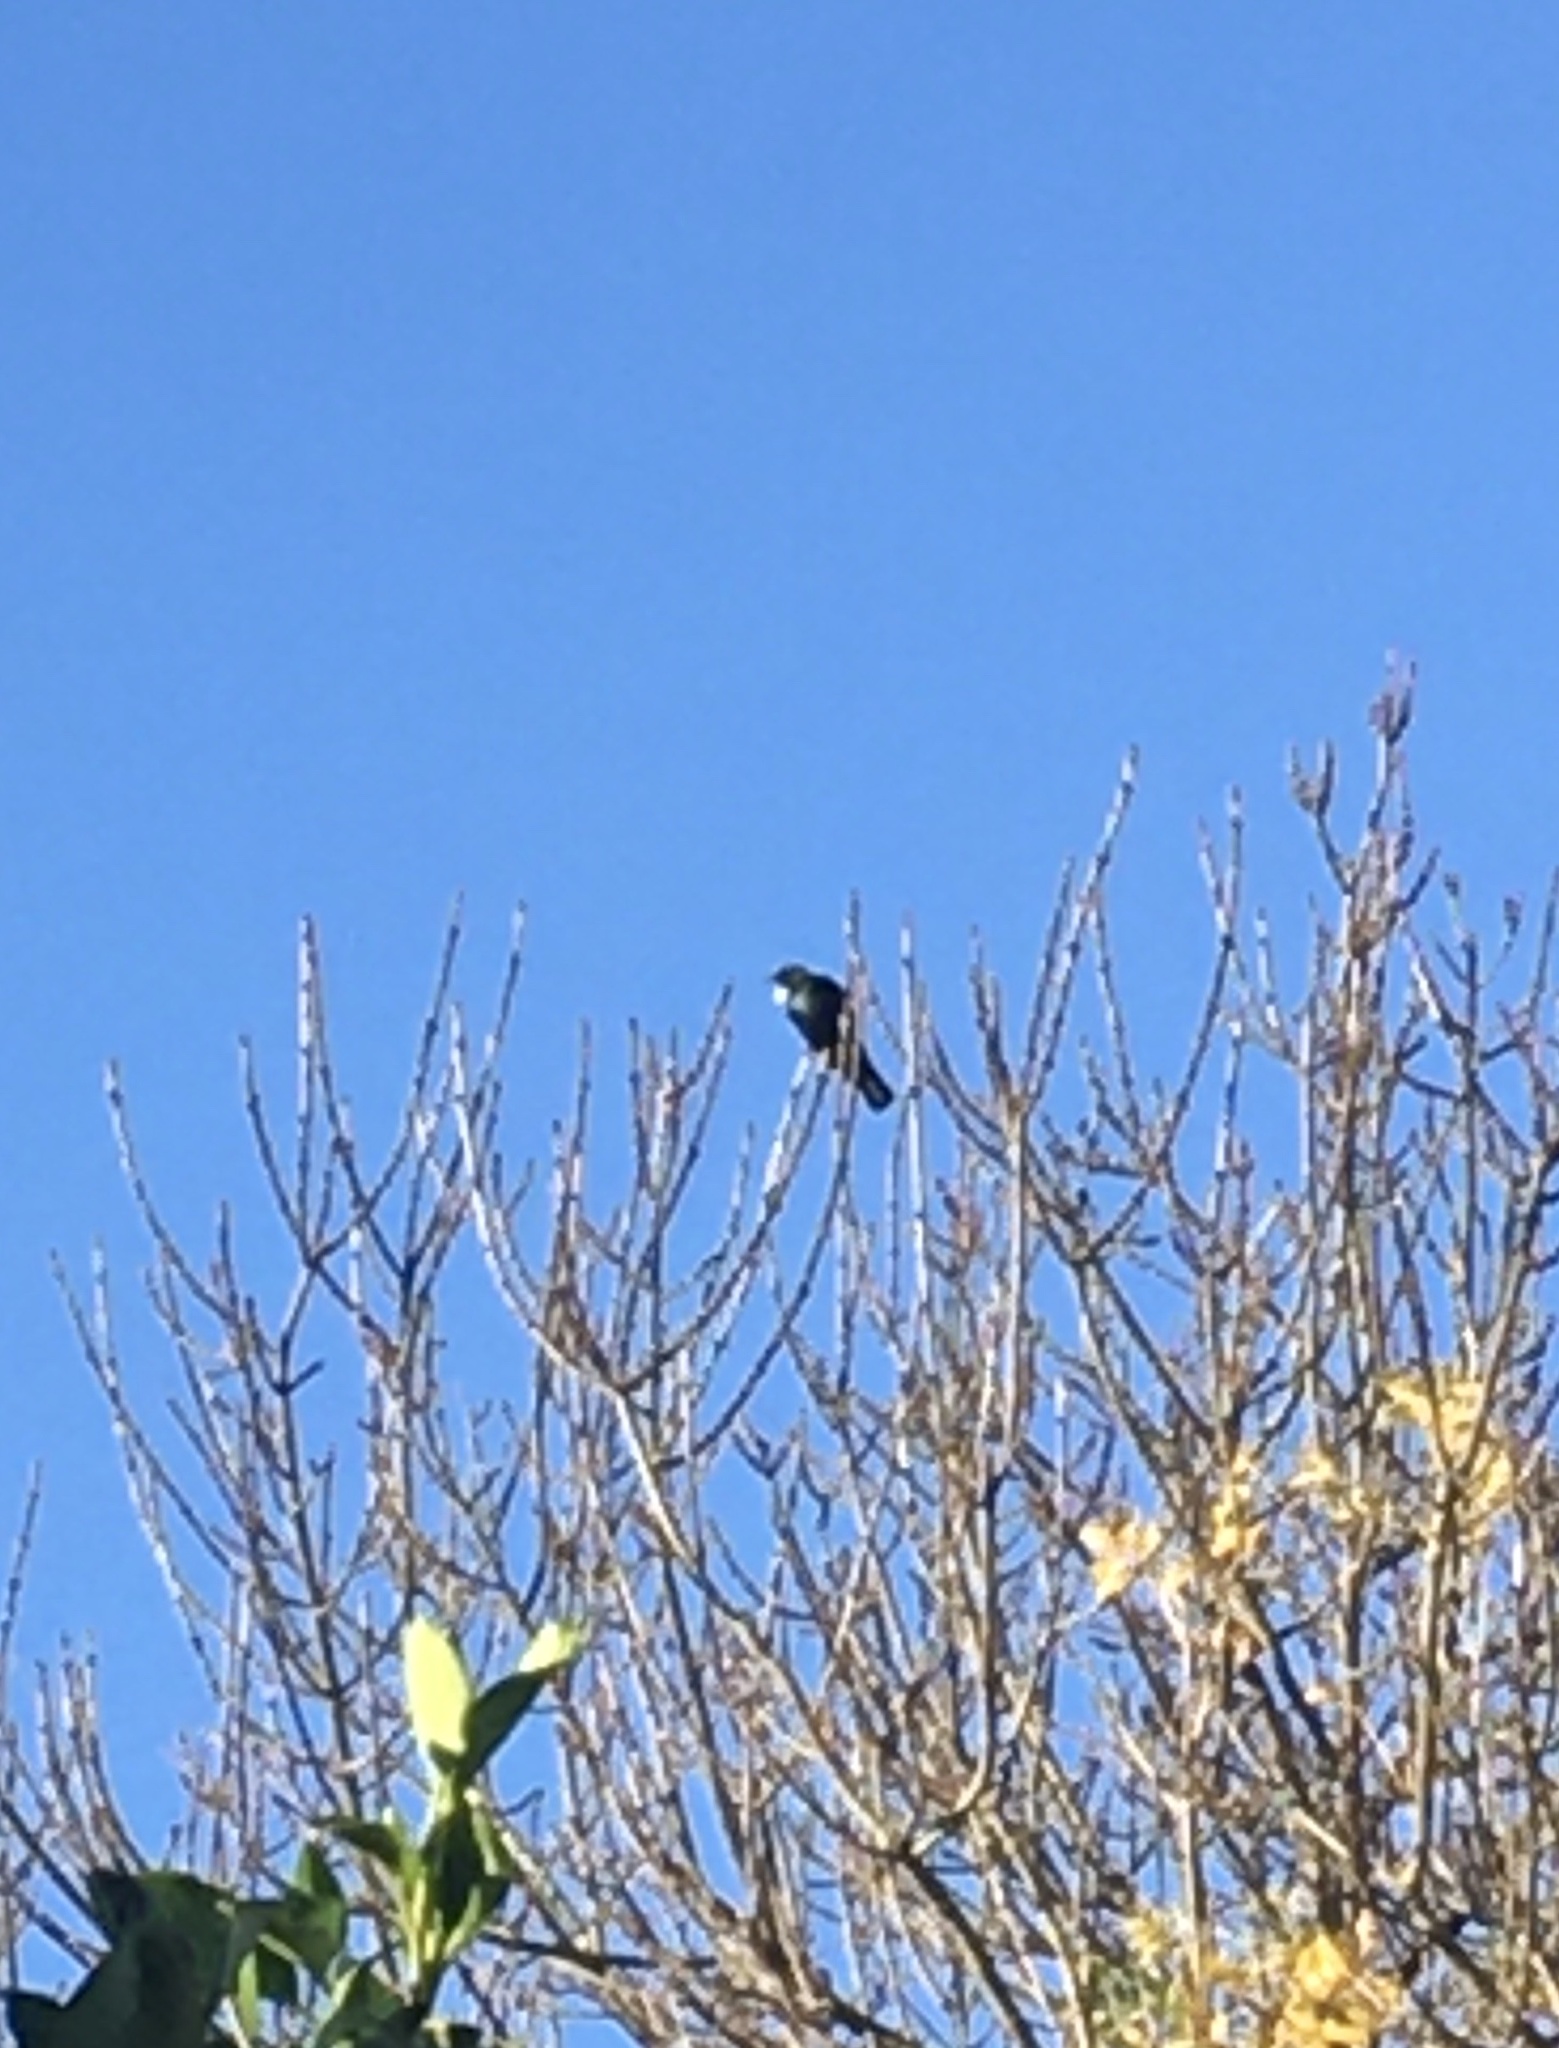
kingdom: Animalia
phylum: Chordata
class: Aves
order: Passeriformes
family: Meliphagidae
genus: Prosthemadera
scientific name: Prosthemadera novaeseelandiae
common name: Tui
